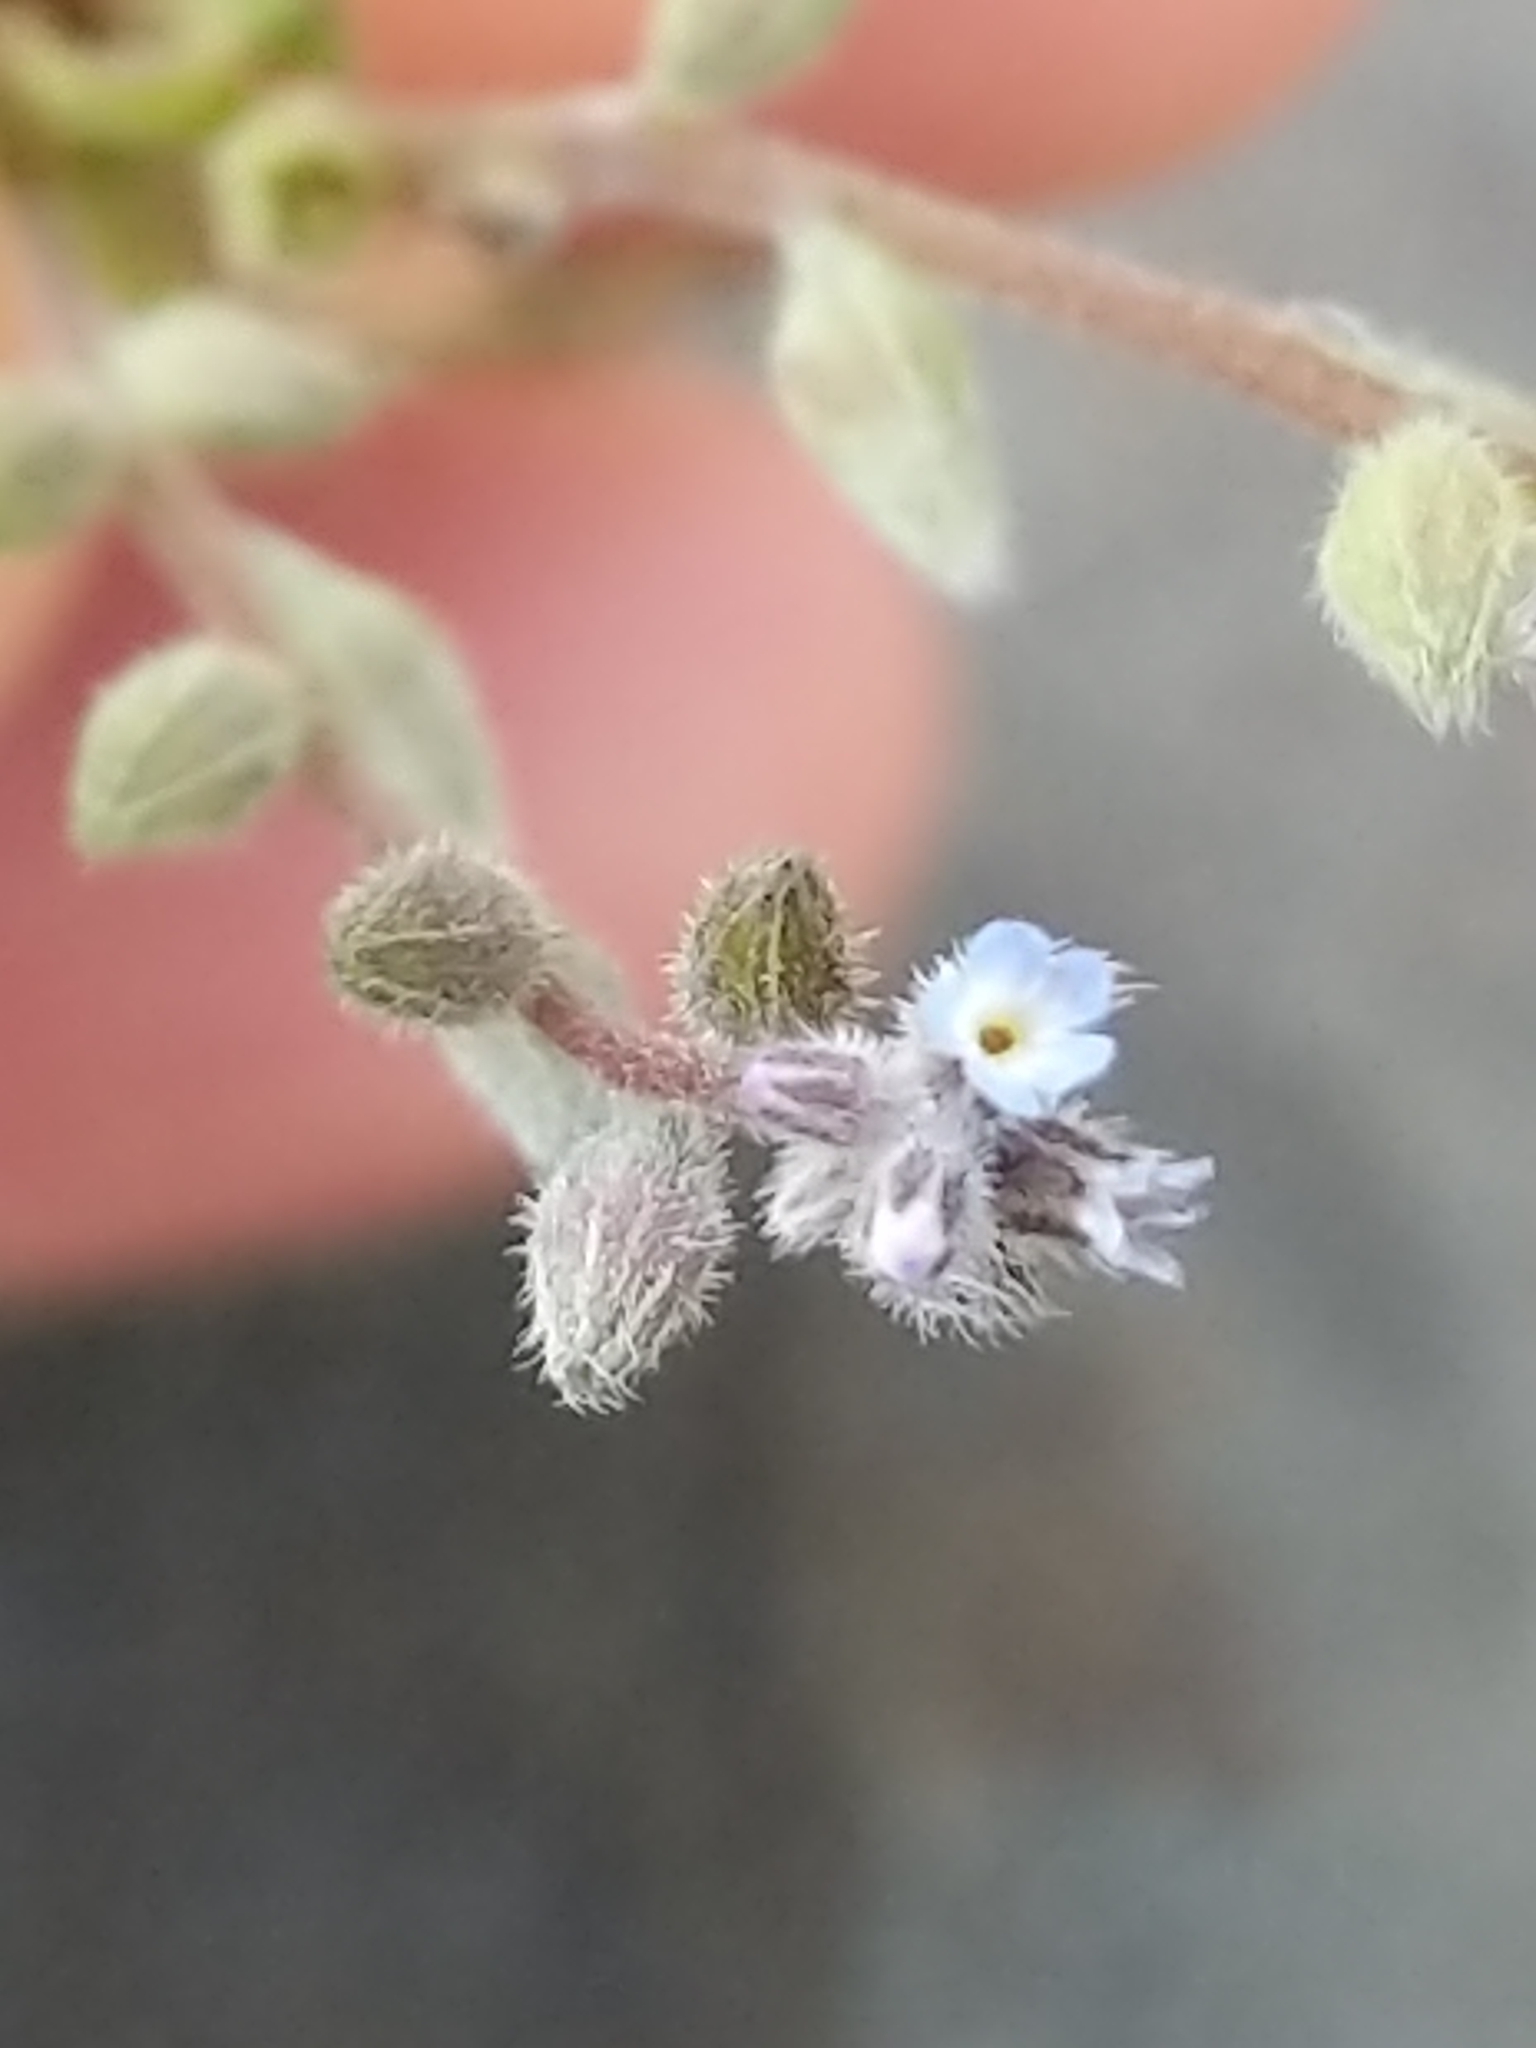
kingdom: Plantae
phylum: Tracheophyta
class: Magnoliopsida
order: Boraginales
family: Boraginaceae
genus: Myosotis
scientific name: Myosotis stricta
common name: Strict forget-me-not
